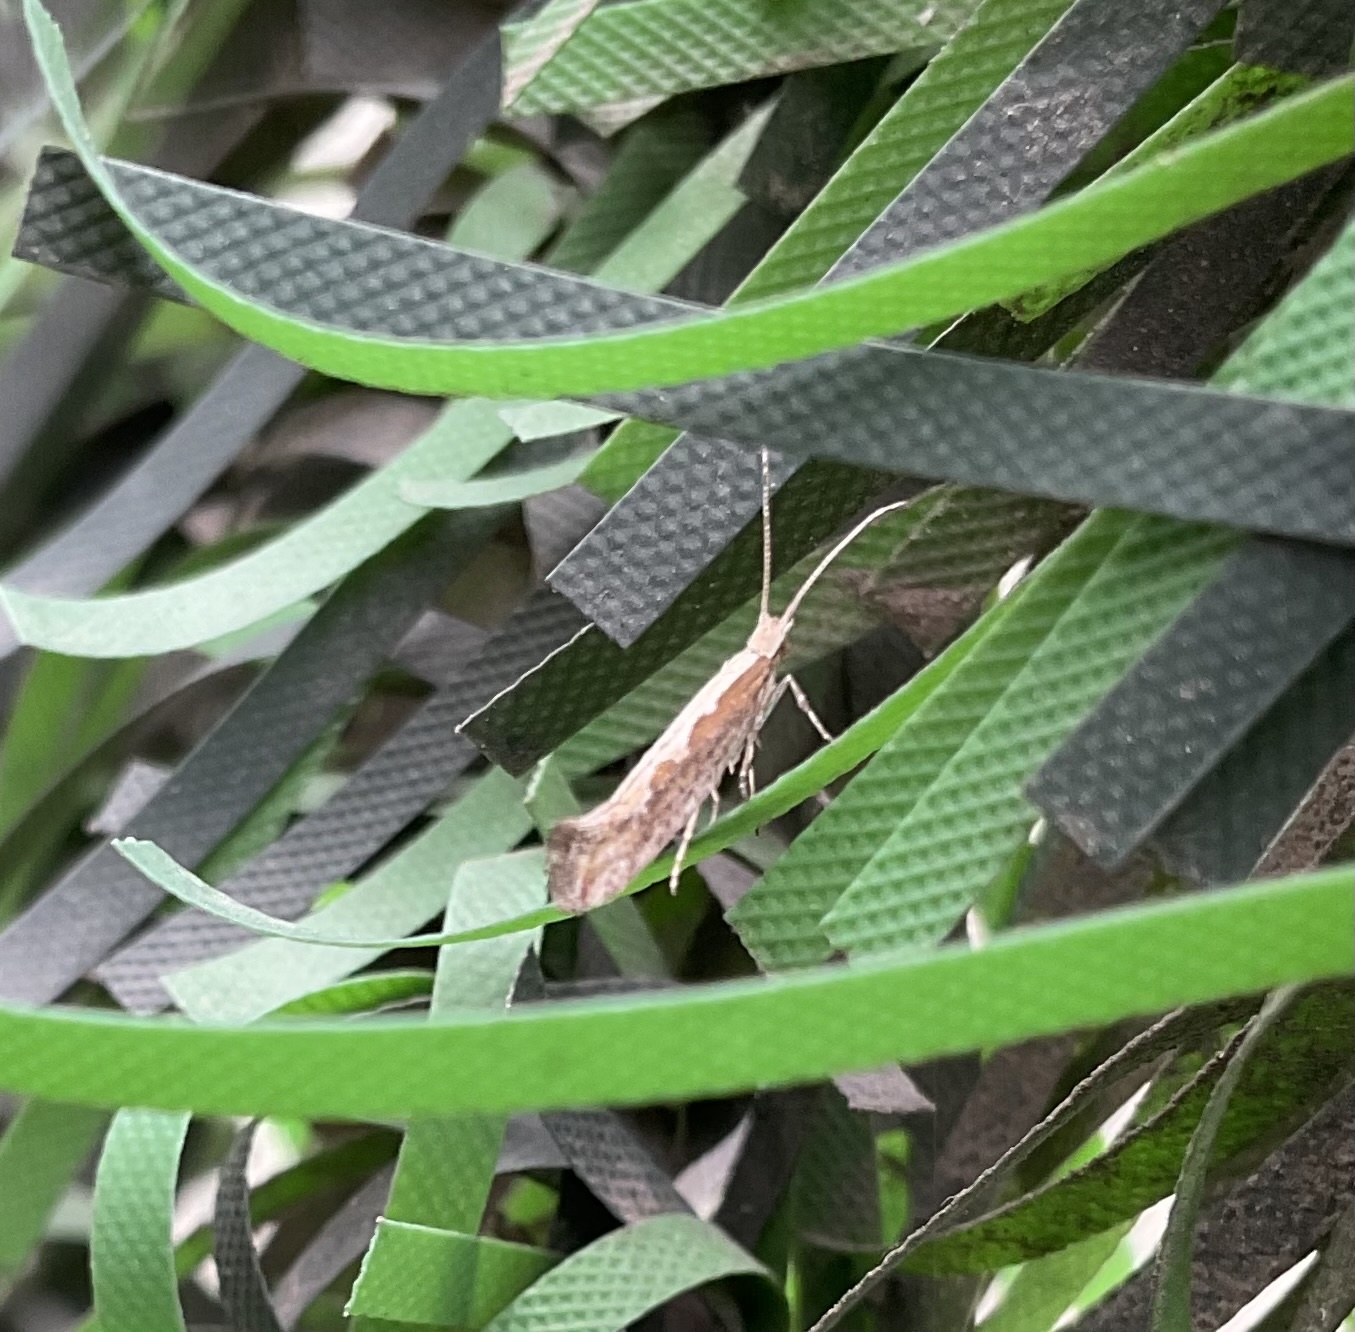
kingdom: Animalia
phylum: Arthropoda
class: Insecta
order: Lepidoptera
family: Plutellidae
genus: Plutella
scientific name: Plutella xylostella
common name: Diamond-back moth
